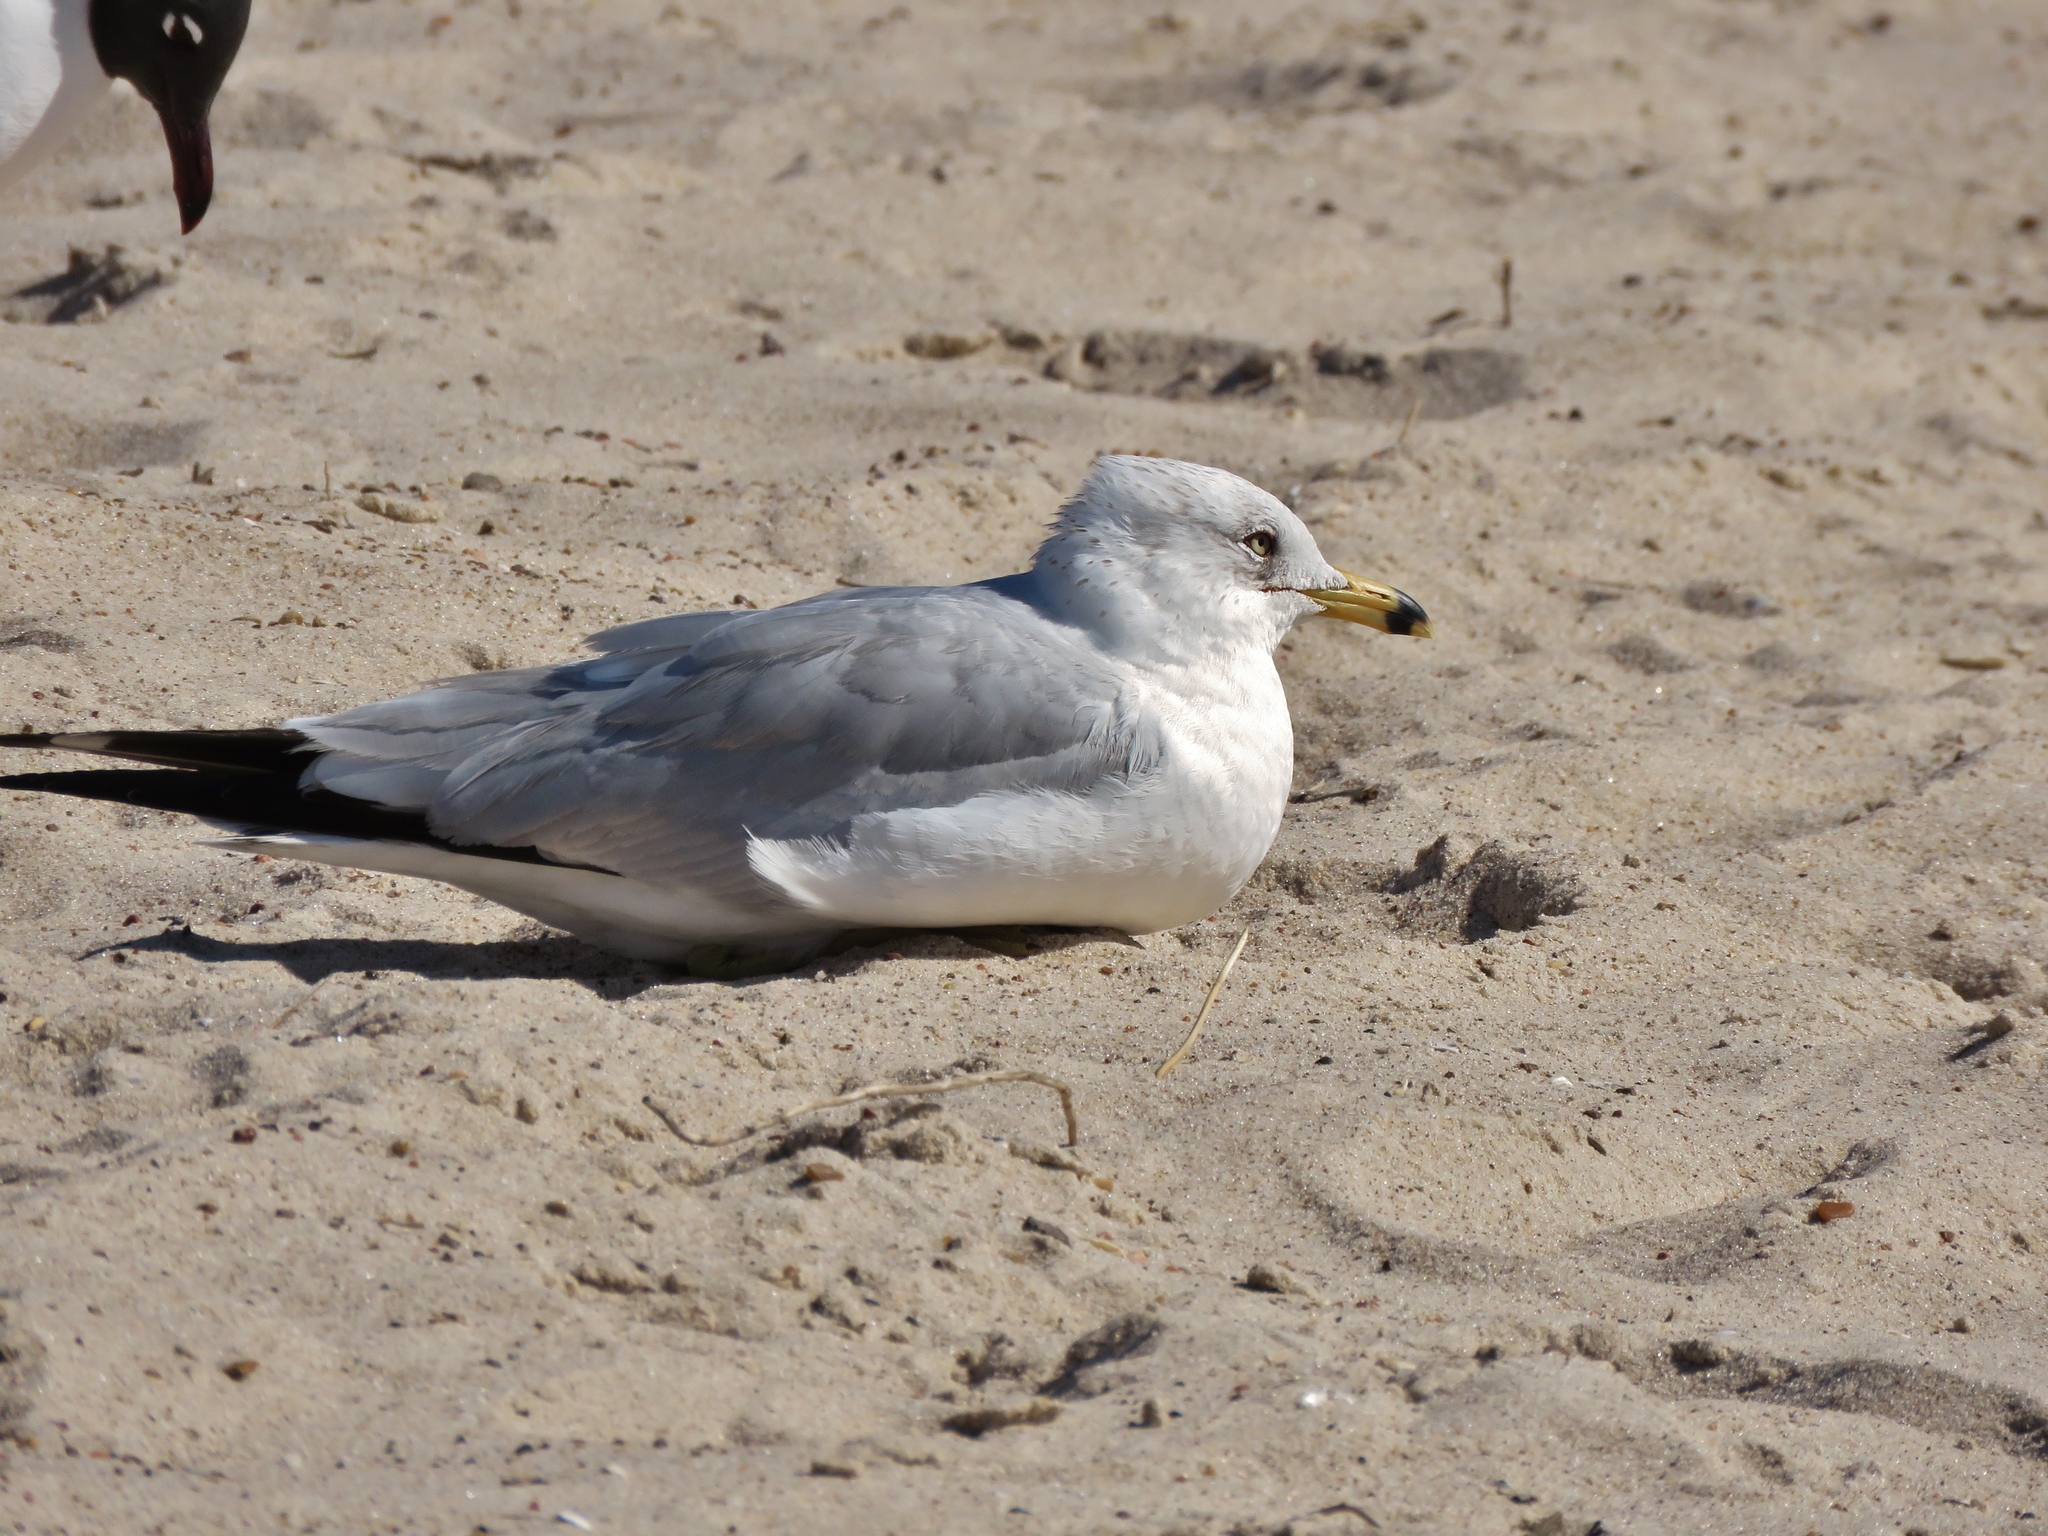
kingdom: Animalia
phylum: Chordata
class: Aves
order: Charadriiformes
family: Laridae
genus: Larus
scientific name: Larus delawarensis
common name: Ring-billed gull
